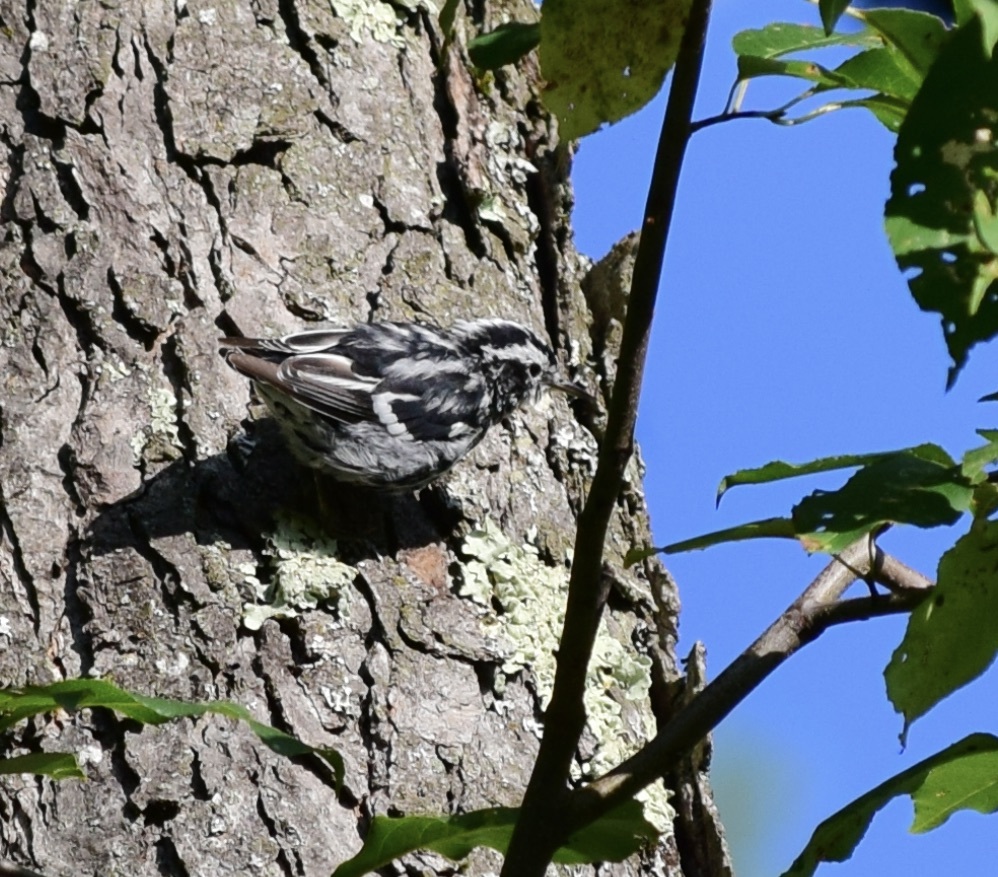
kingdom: Animalia
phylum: Chordata
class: Aves
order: Passeriformes
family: Parulidae
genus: Mniotilta
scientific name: Mniotilta varia
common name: Black-and-white warbler
